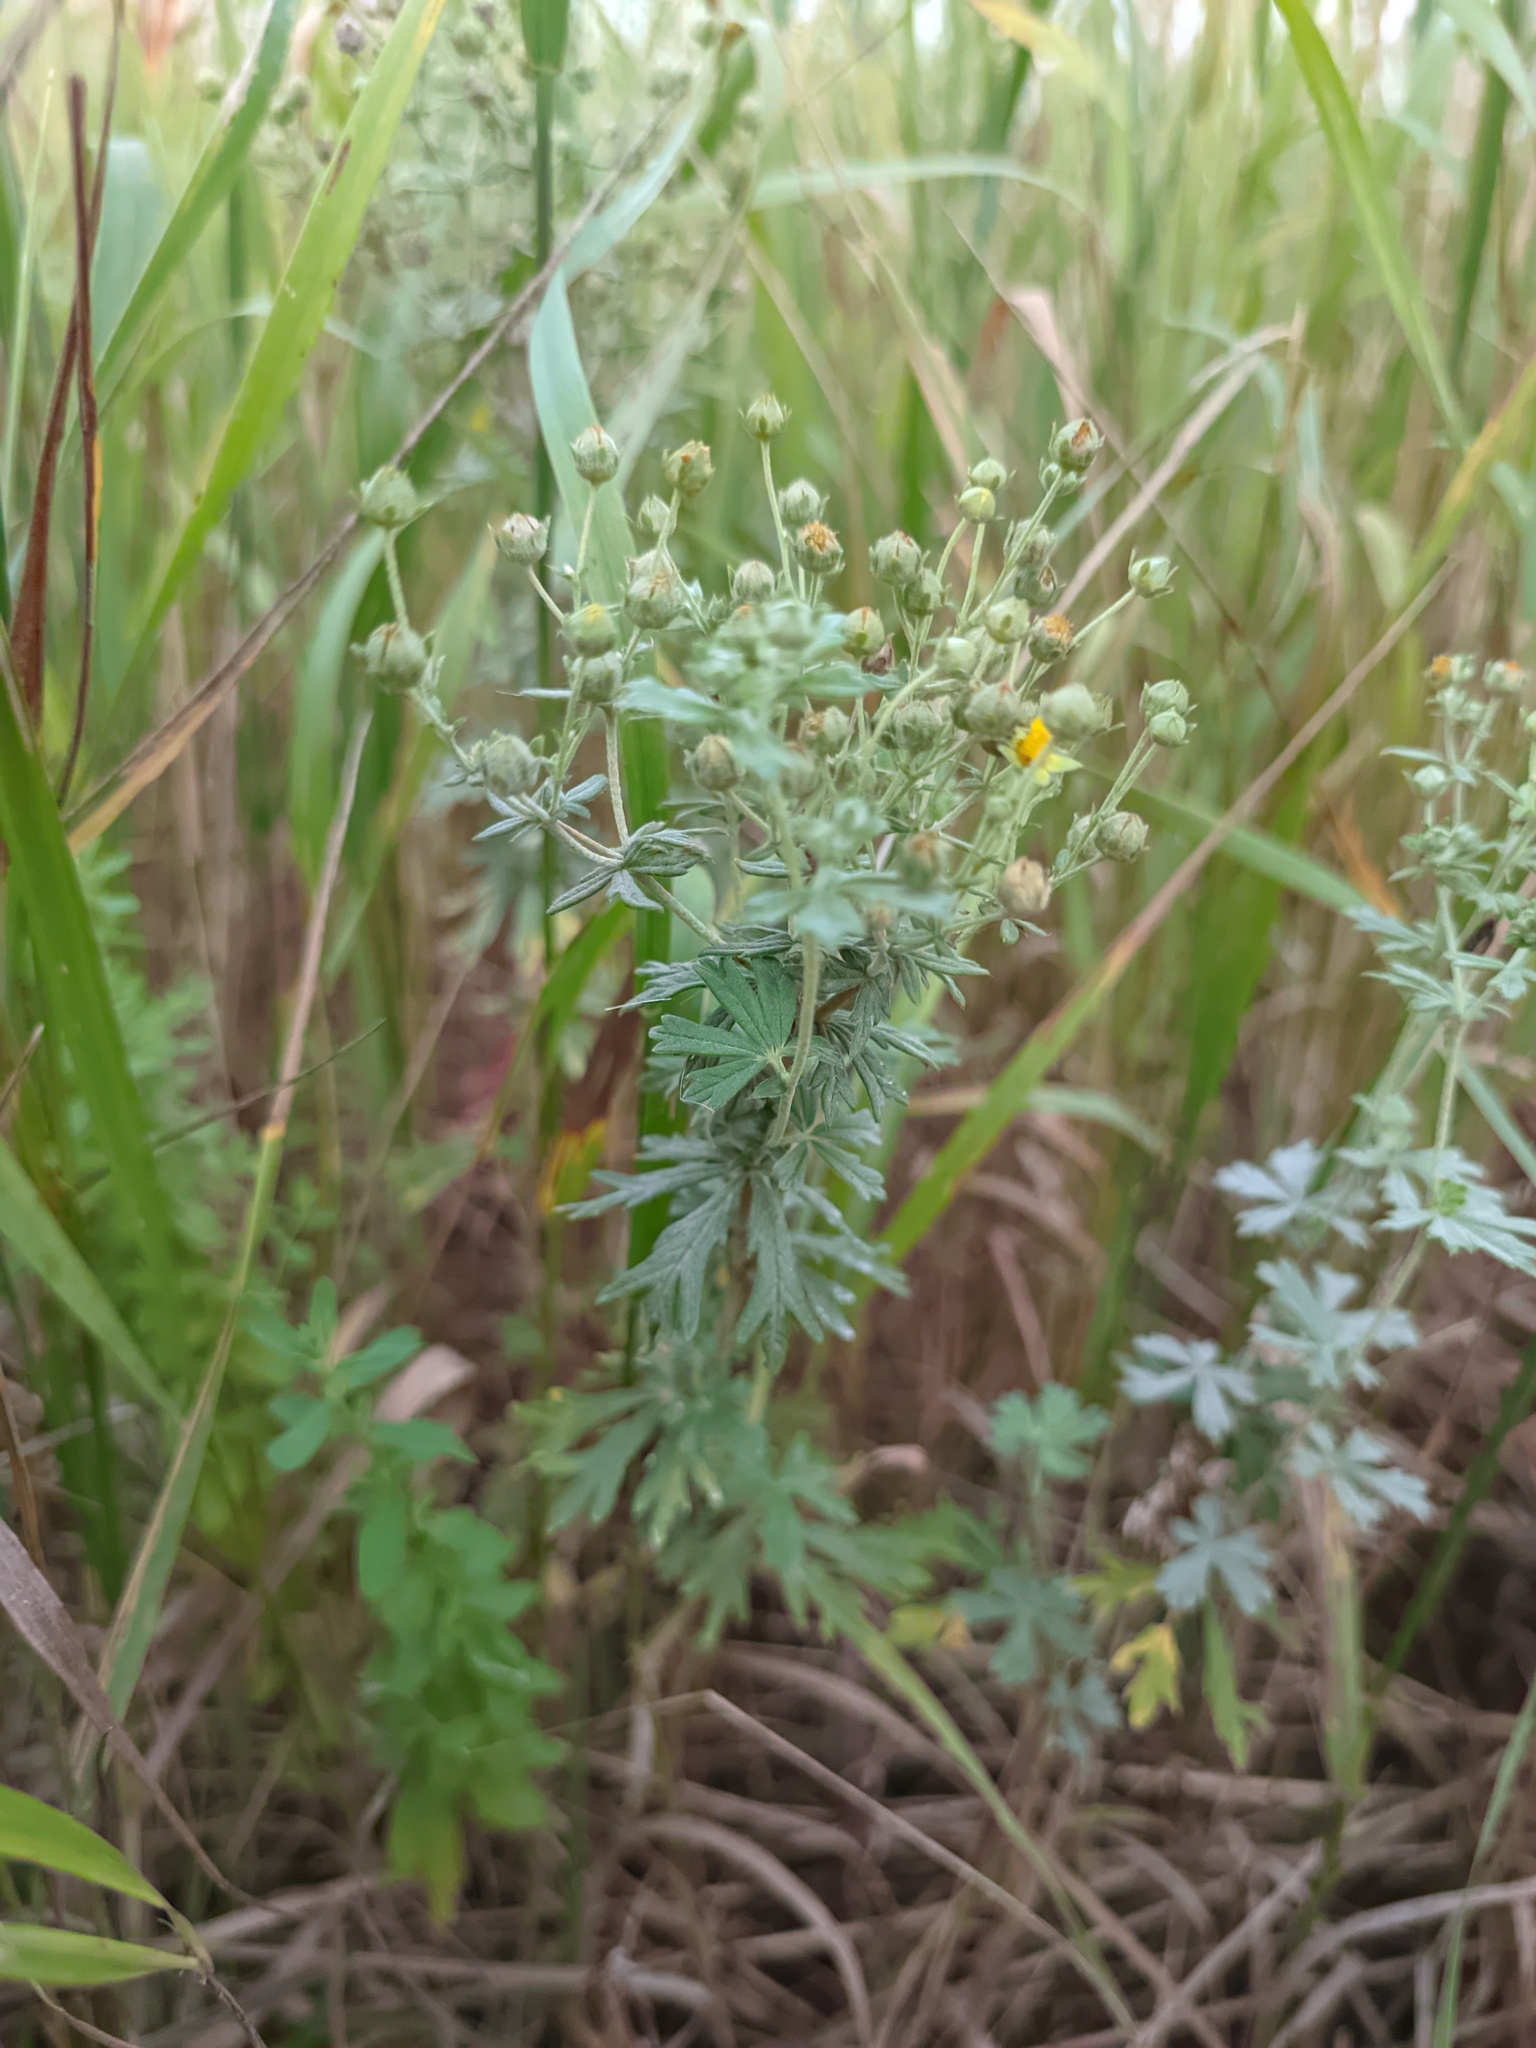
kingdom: Plantae
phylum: Tracheophyta
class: Magnoliopsida
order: Rosales
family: Rosaceae
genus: Potentilla
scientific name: Potentilla argentea
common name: Hoary cinquefoil
